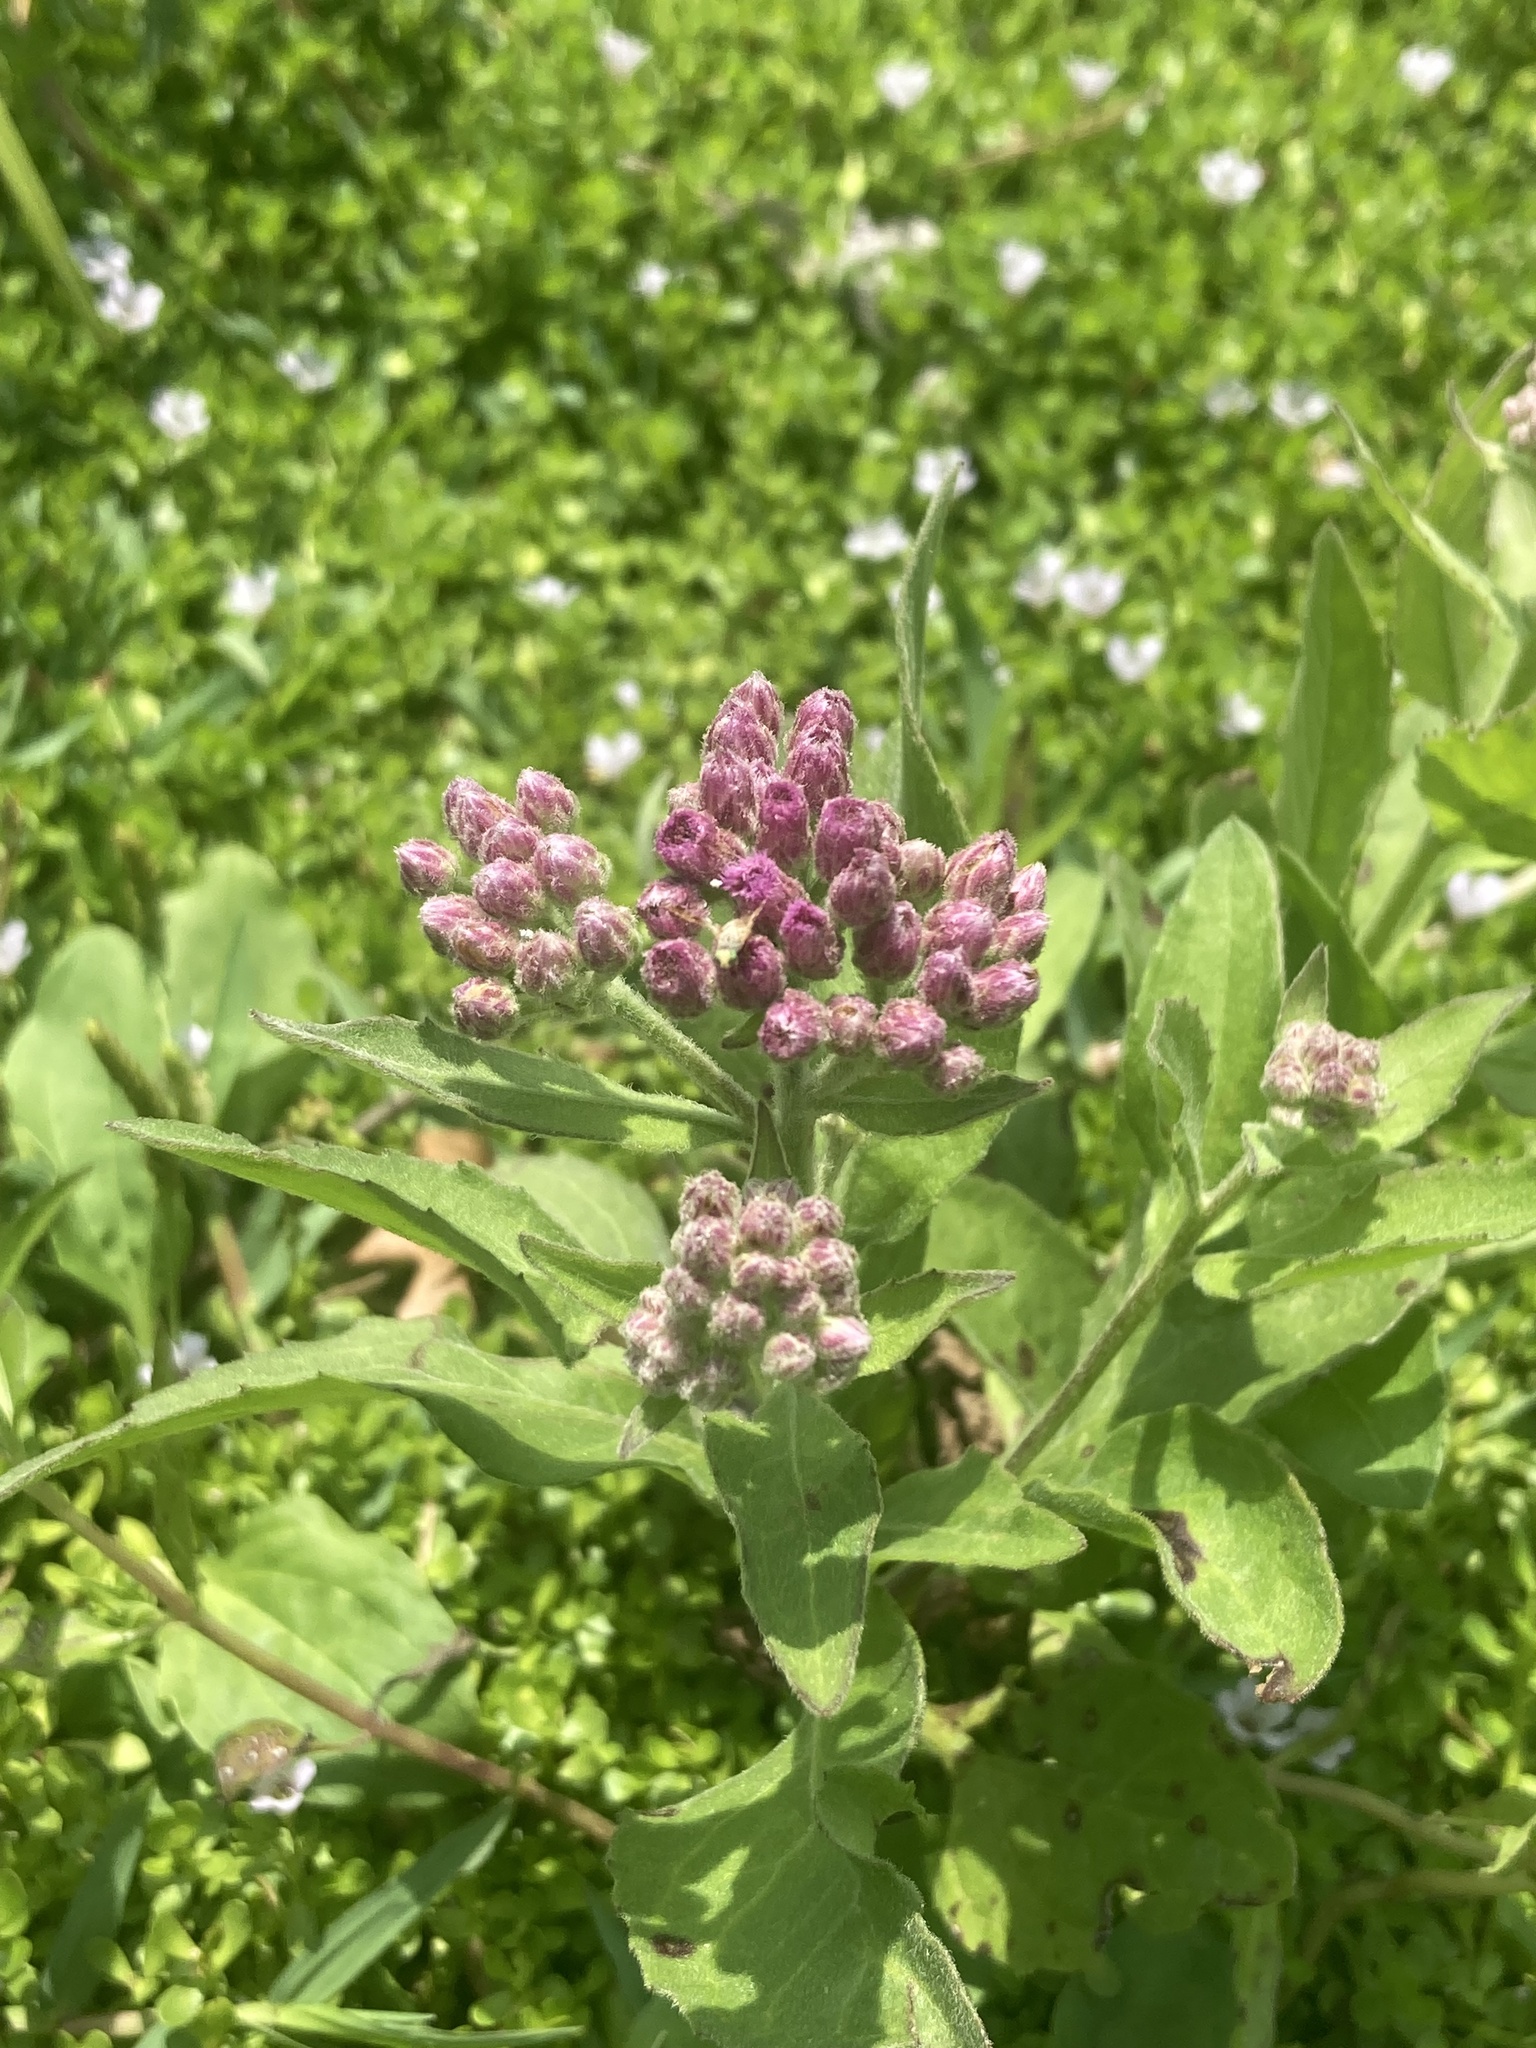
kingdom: Plantae
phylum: Tracheophyta
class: Magnoliopsida
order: Asterales
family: Asteraceae
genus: Pluchea
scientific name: Pluchea odorata
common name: Saltmarsh fleabane
